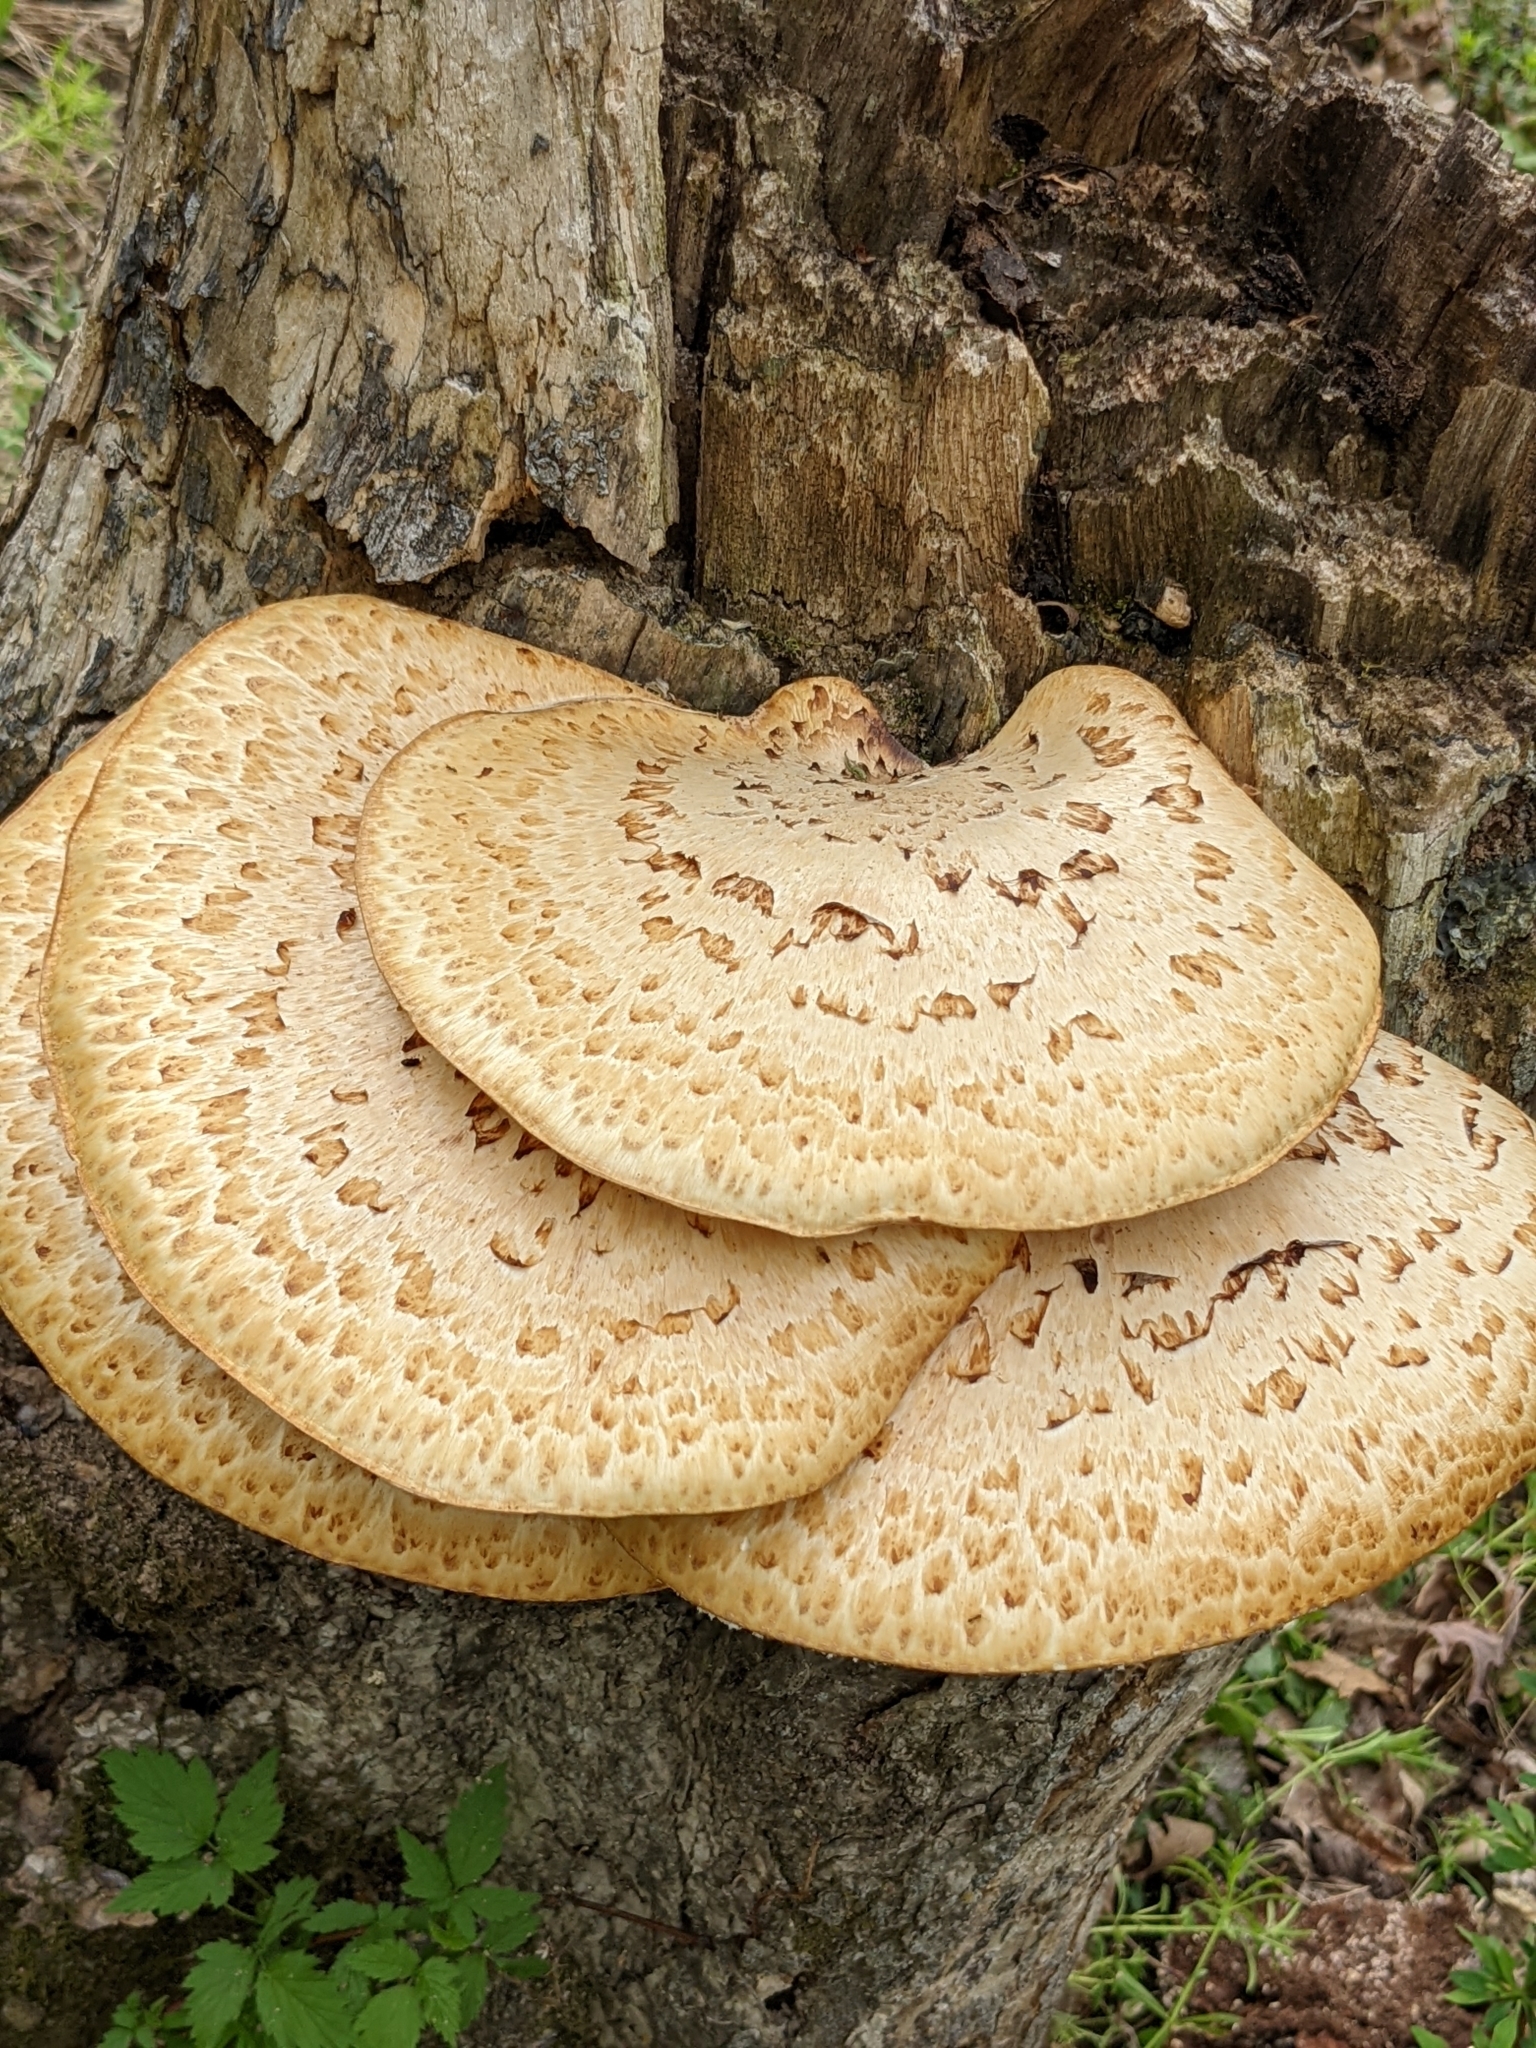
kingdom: Fungi
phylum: Basidiomycota
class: Agaricomycetes
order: Polyporales
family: Polyporaceae
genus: Cerioporus
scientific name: Cerioporus squamosus
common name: Dryad's saddle
